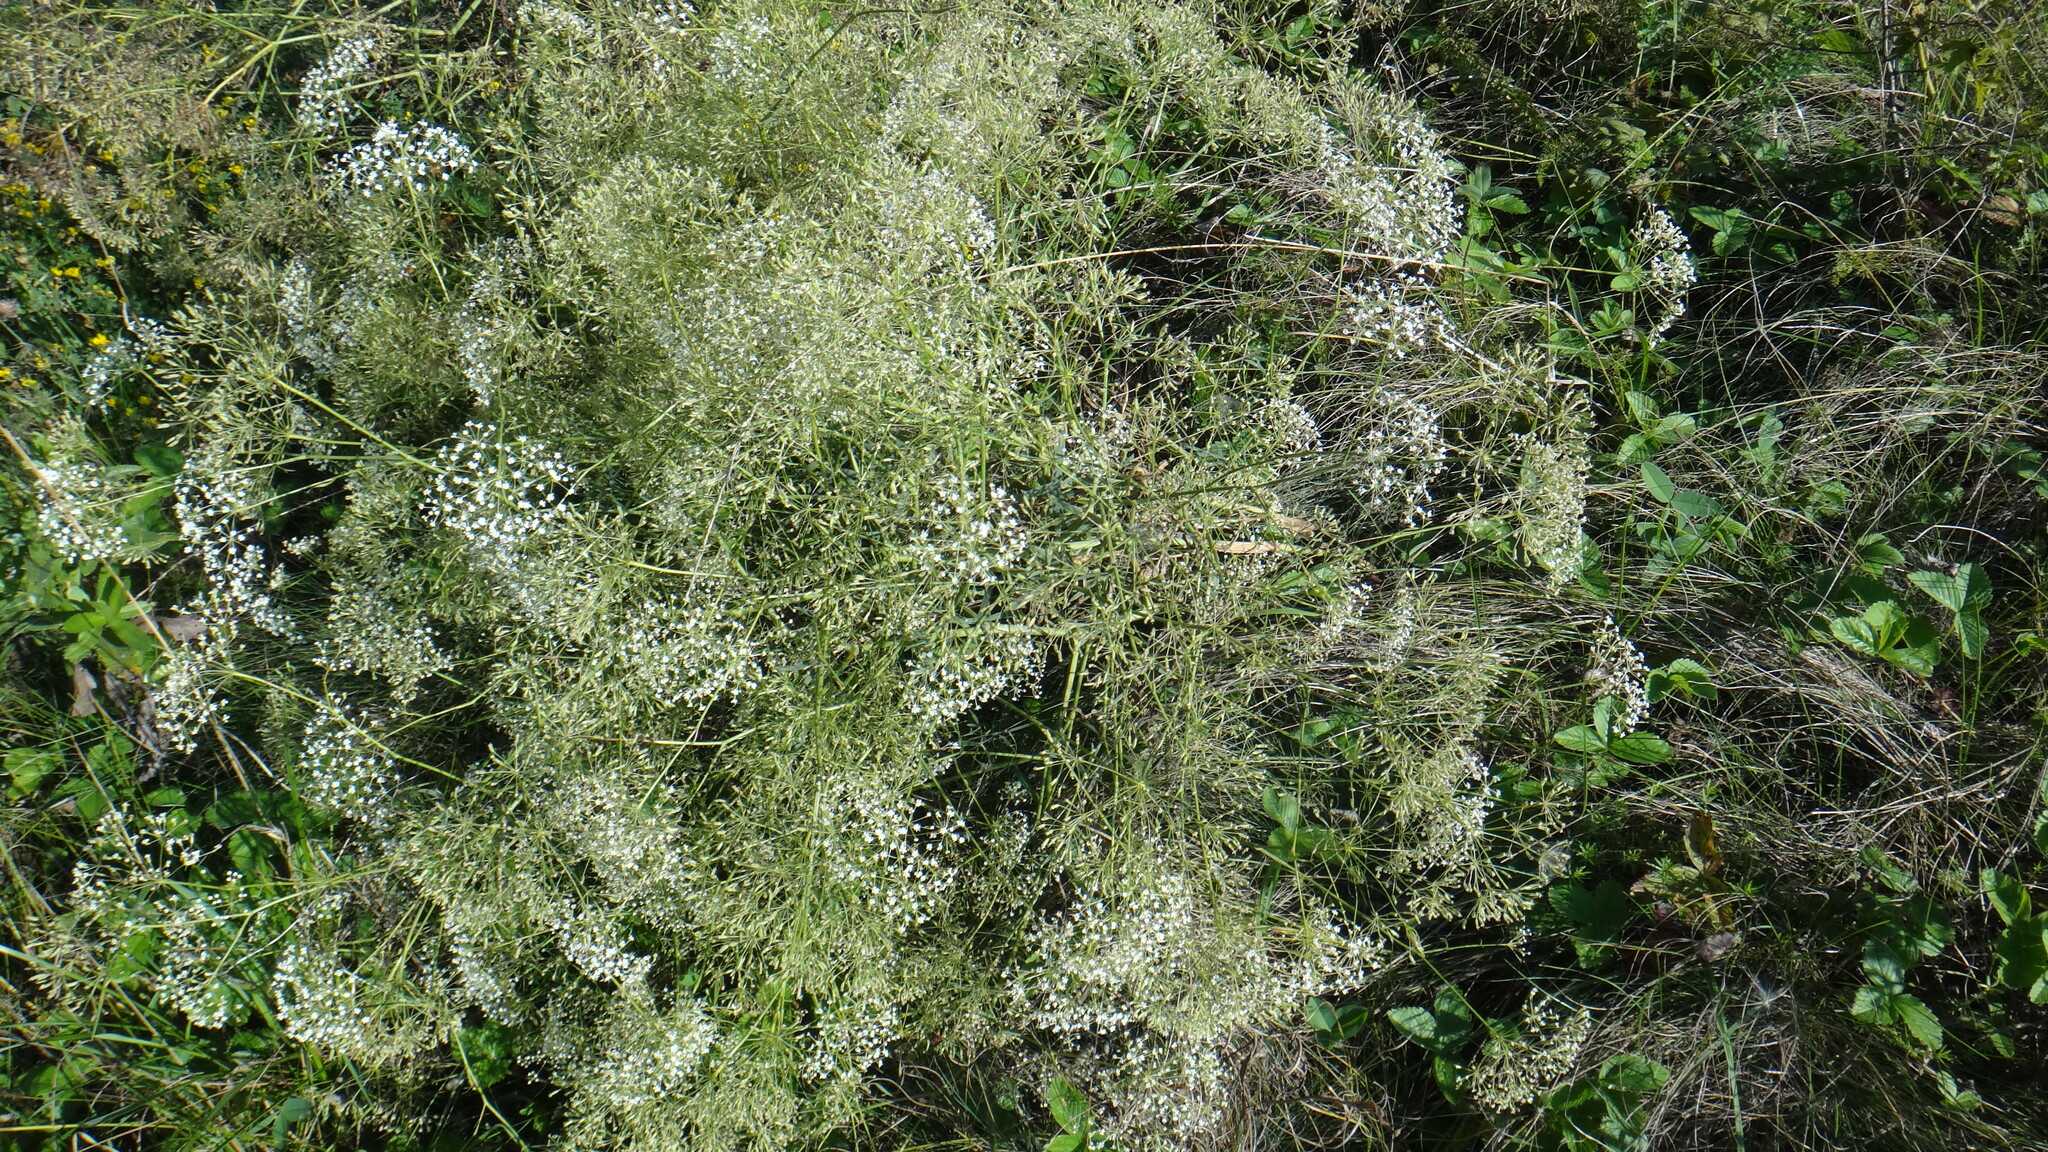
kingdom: Plantae
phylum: Tracheophyta
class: Magnoliopsida
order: Apiales
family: Apiaceae
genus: Falcaria
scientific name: Falcaria vulgaris
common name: Longleaf
